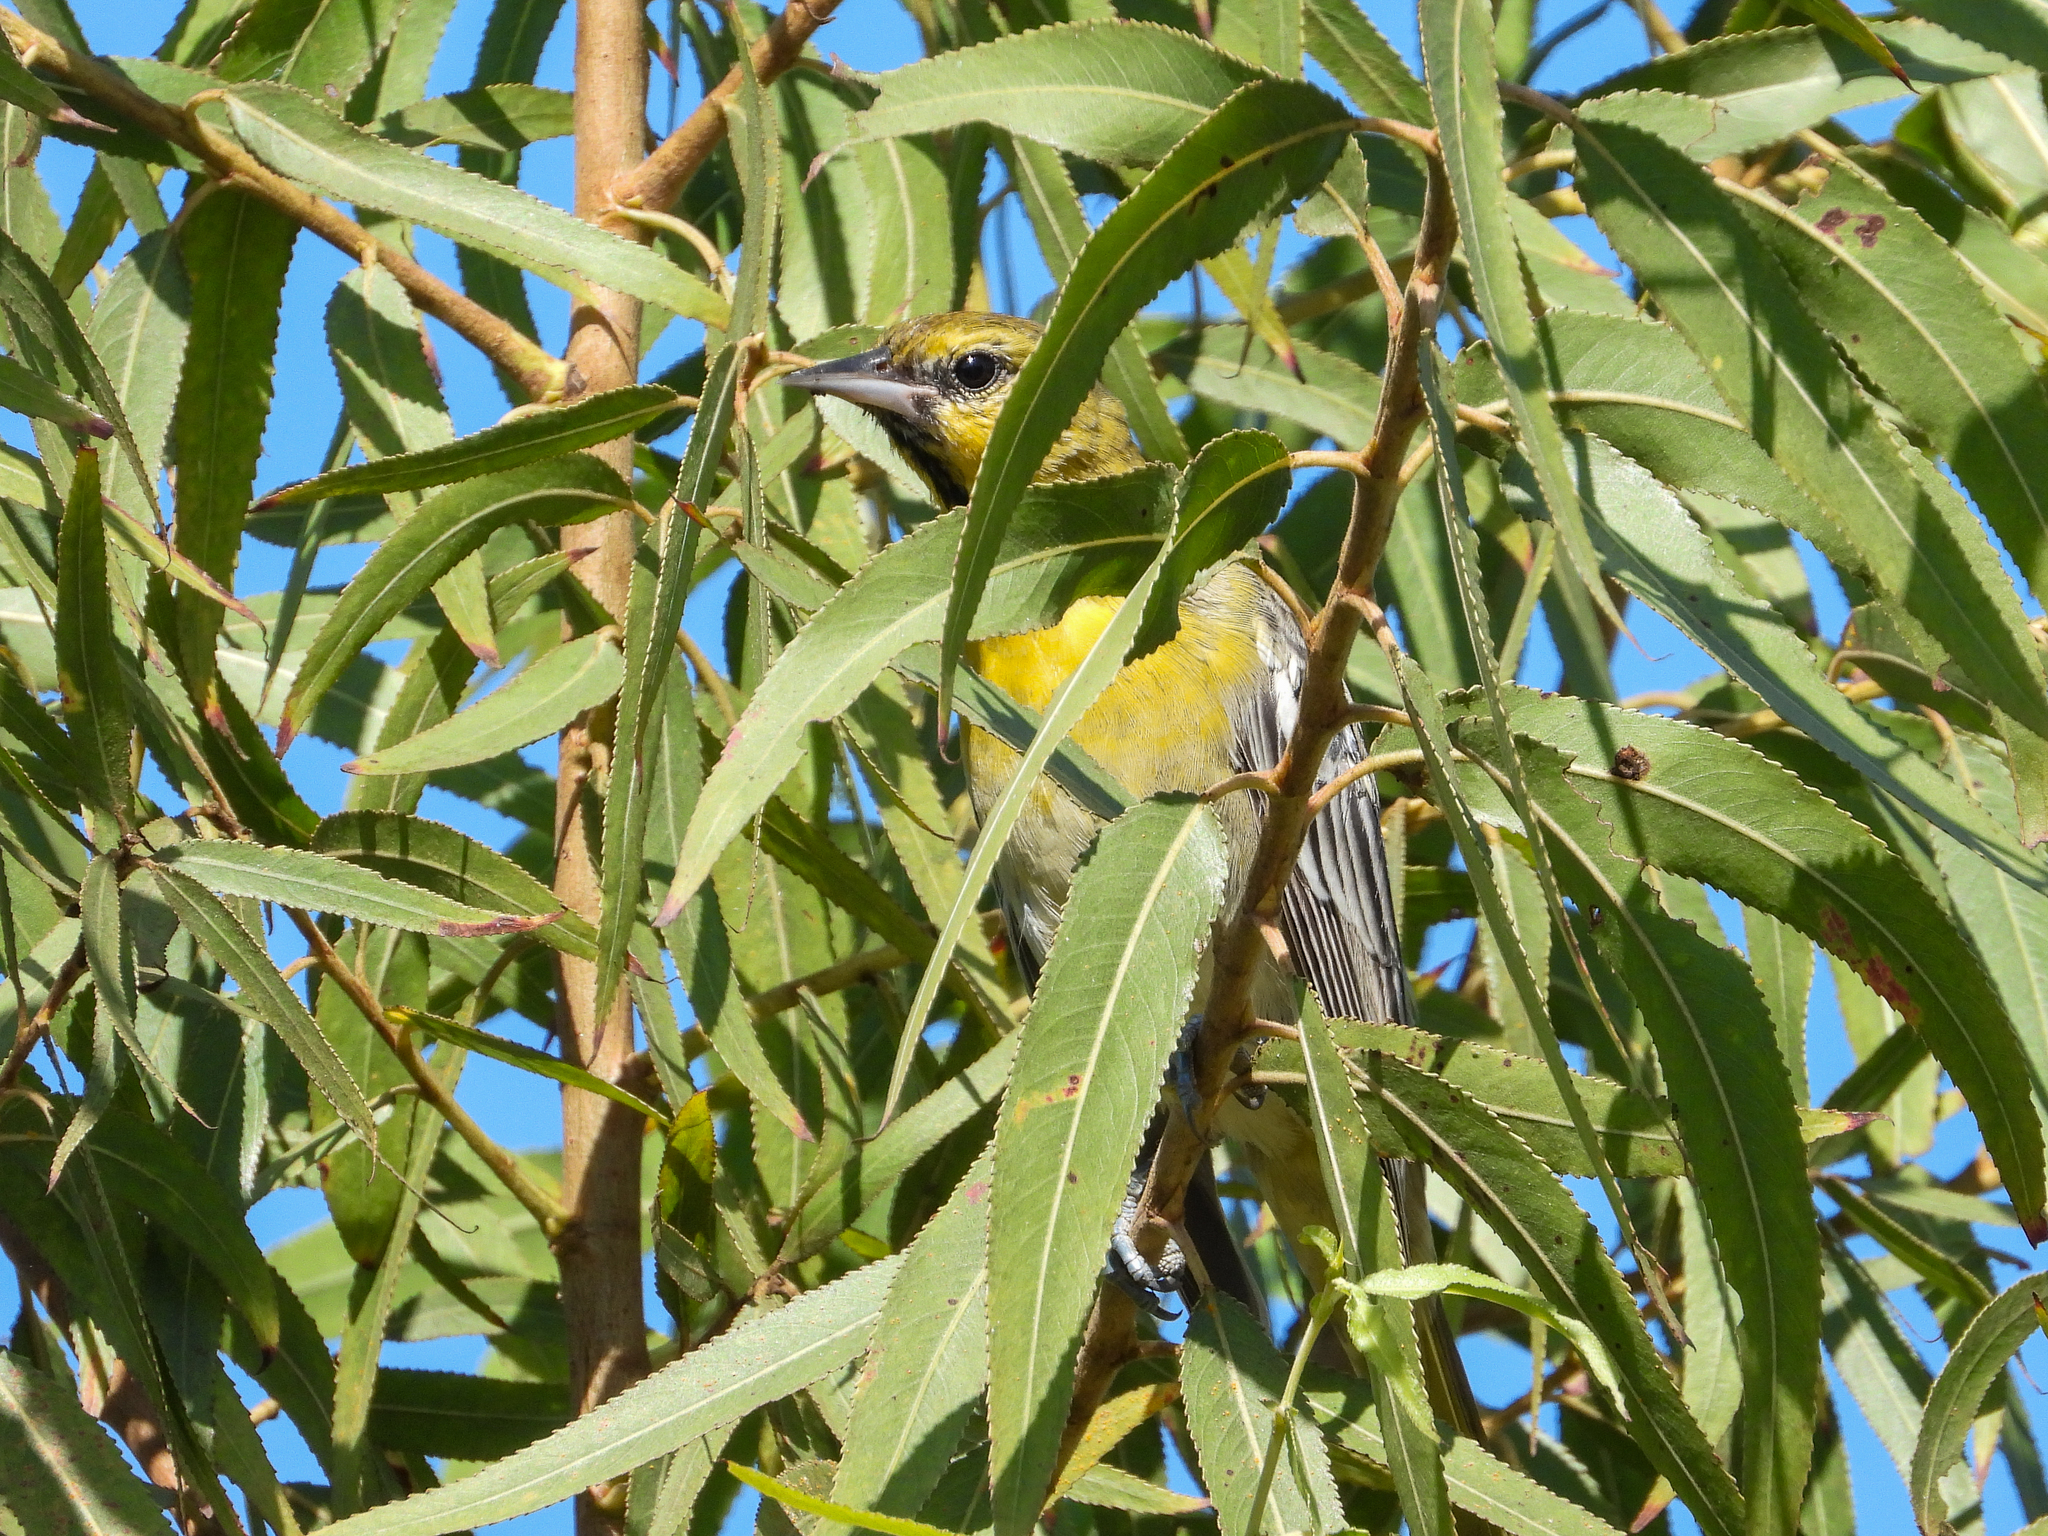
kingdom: Animalia
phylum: Chordata
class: Aves
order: Passeriformes
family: Icteridae
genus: Icterus
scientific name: Icterus bullockii
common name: Bullock's oriole
